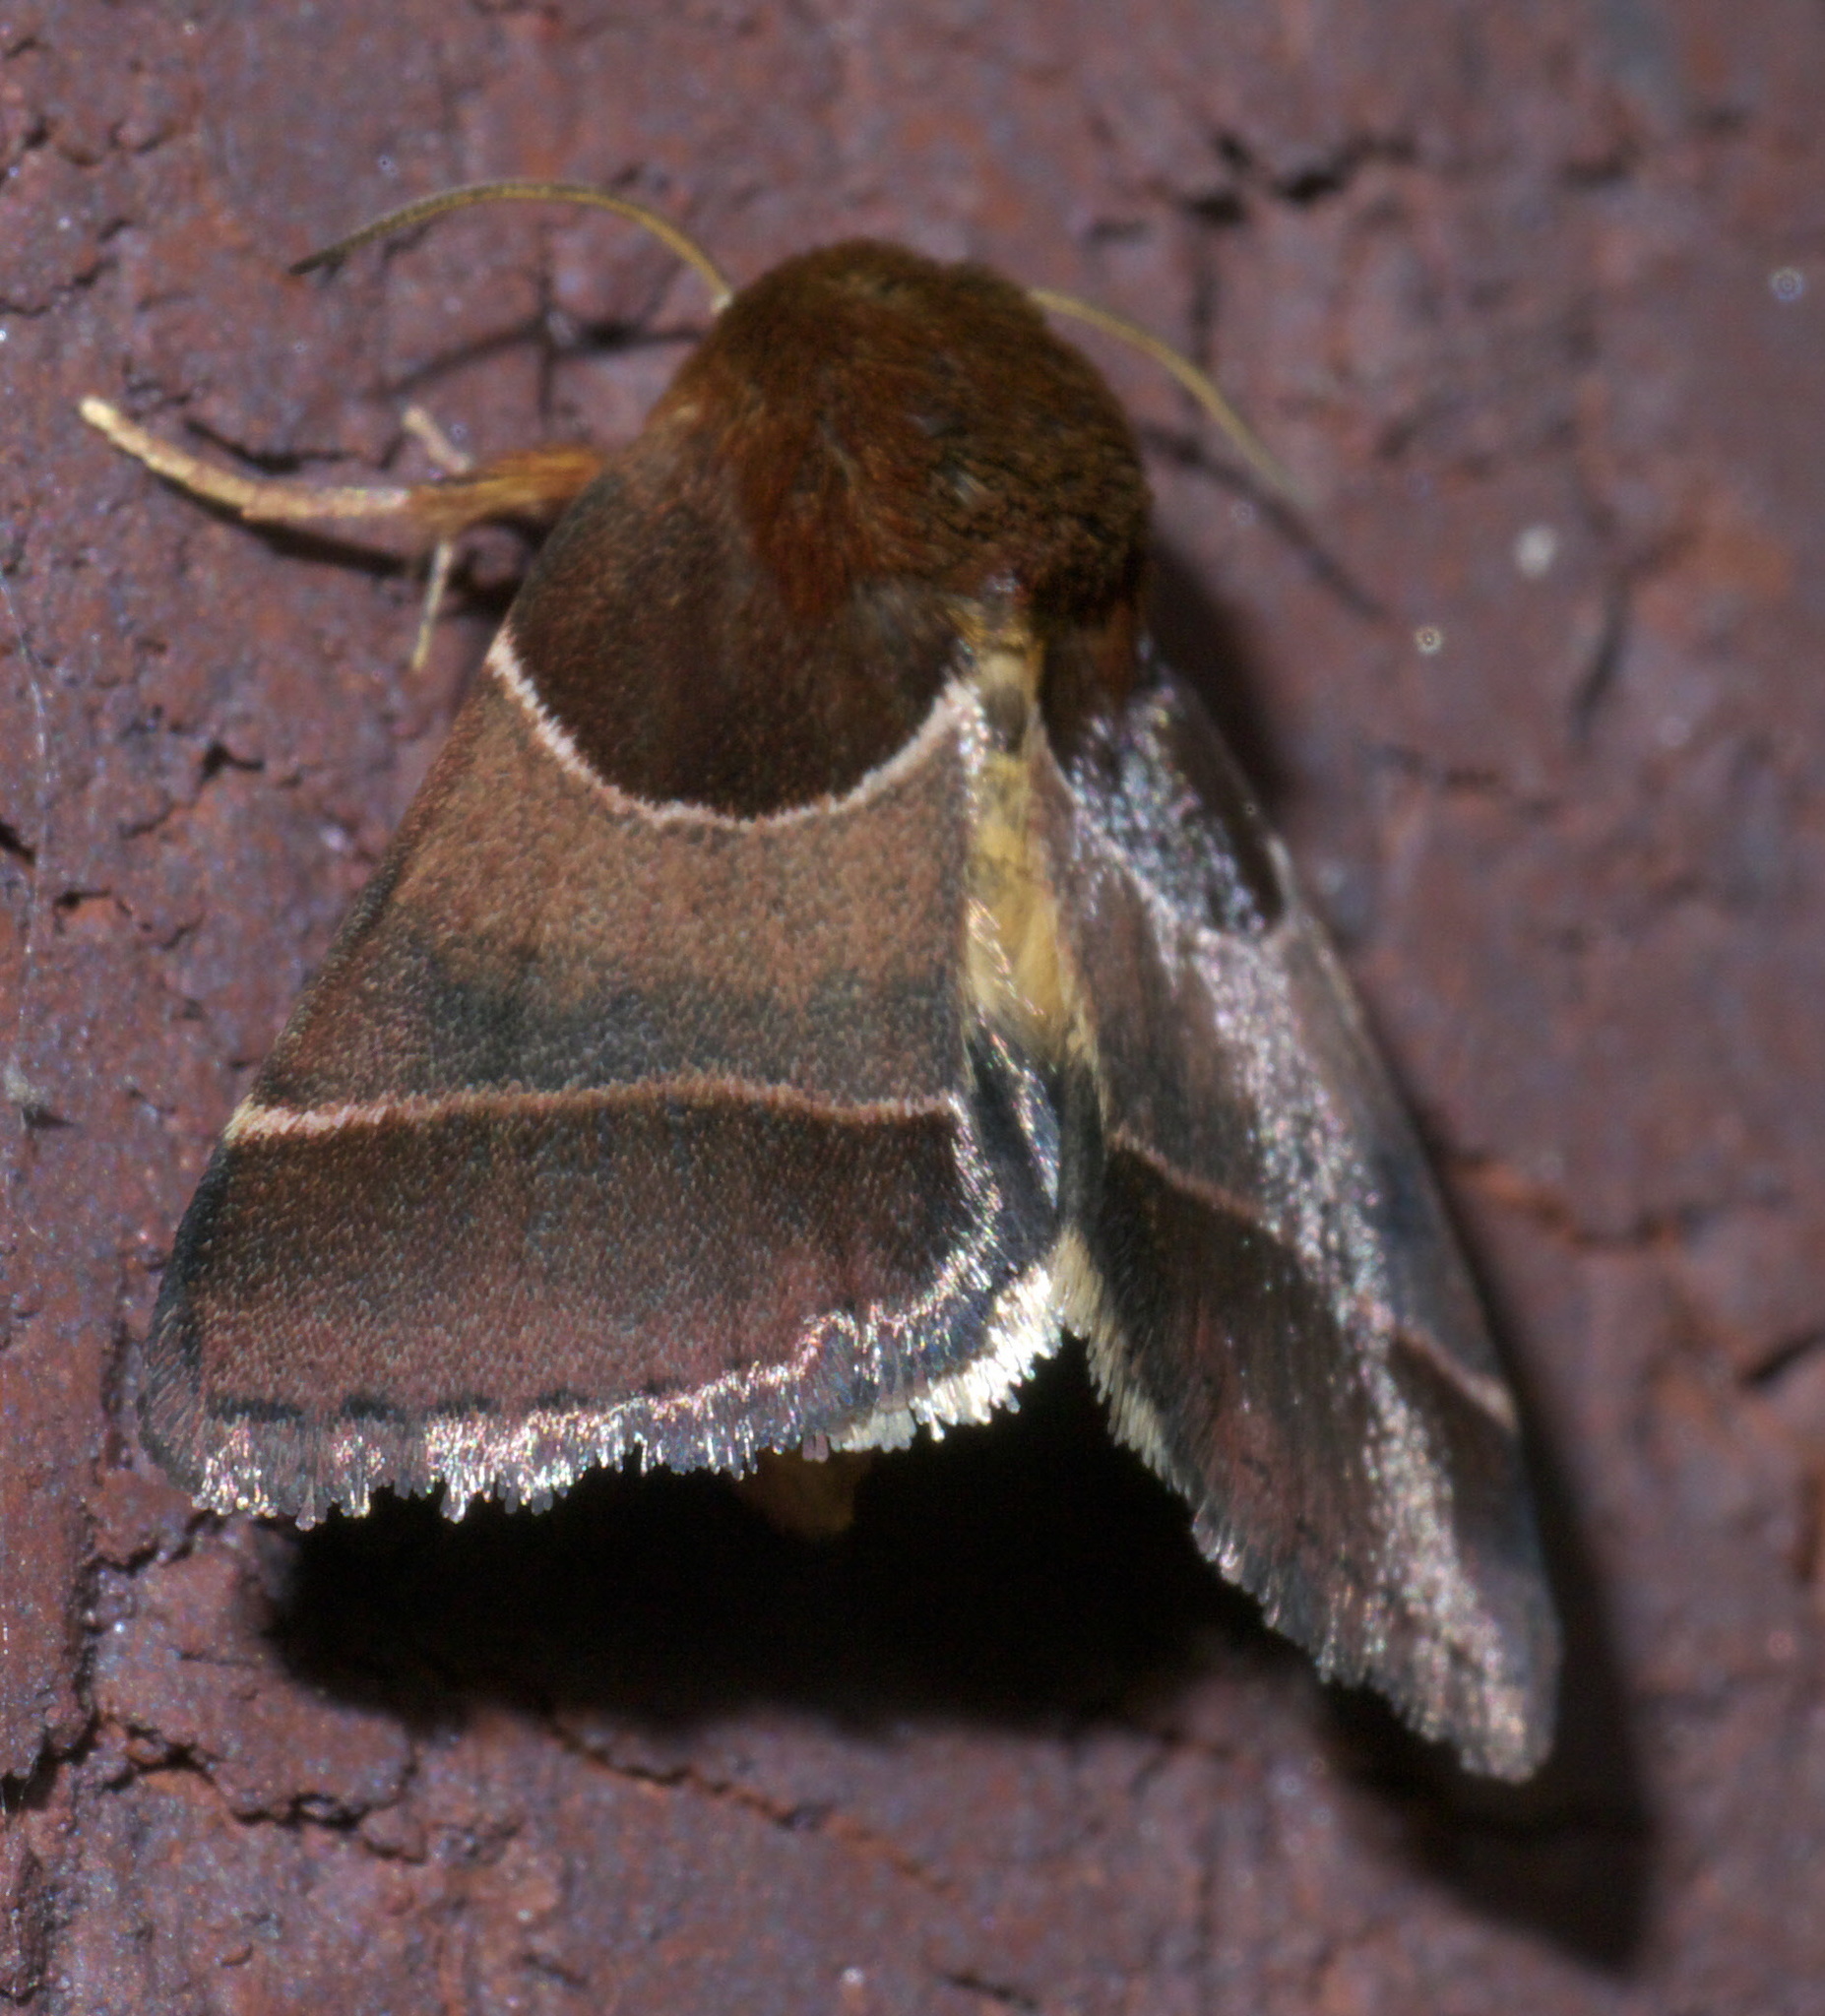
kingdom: Animalia
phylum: Arthropoda
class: Insecta
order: Lepidoptera
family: Noctuidae
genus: Schinia
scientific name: Schinia arcigera
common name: Arcigera flower moth
